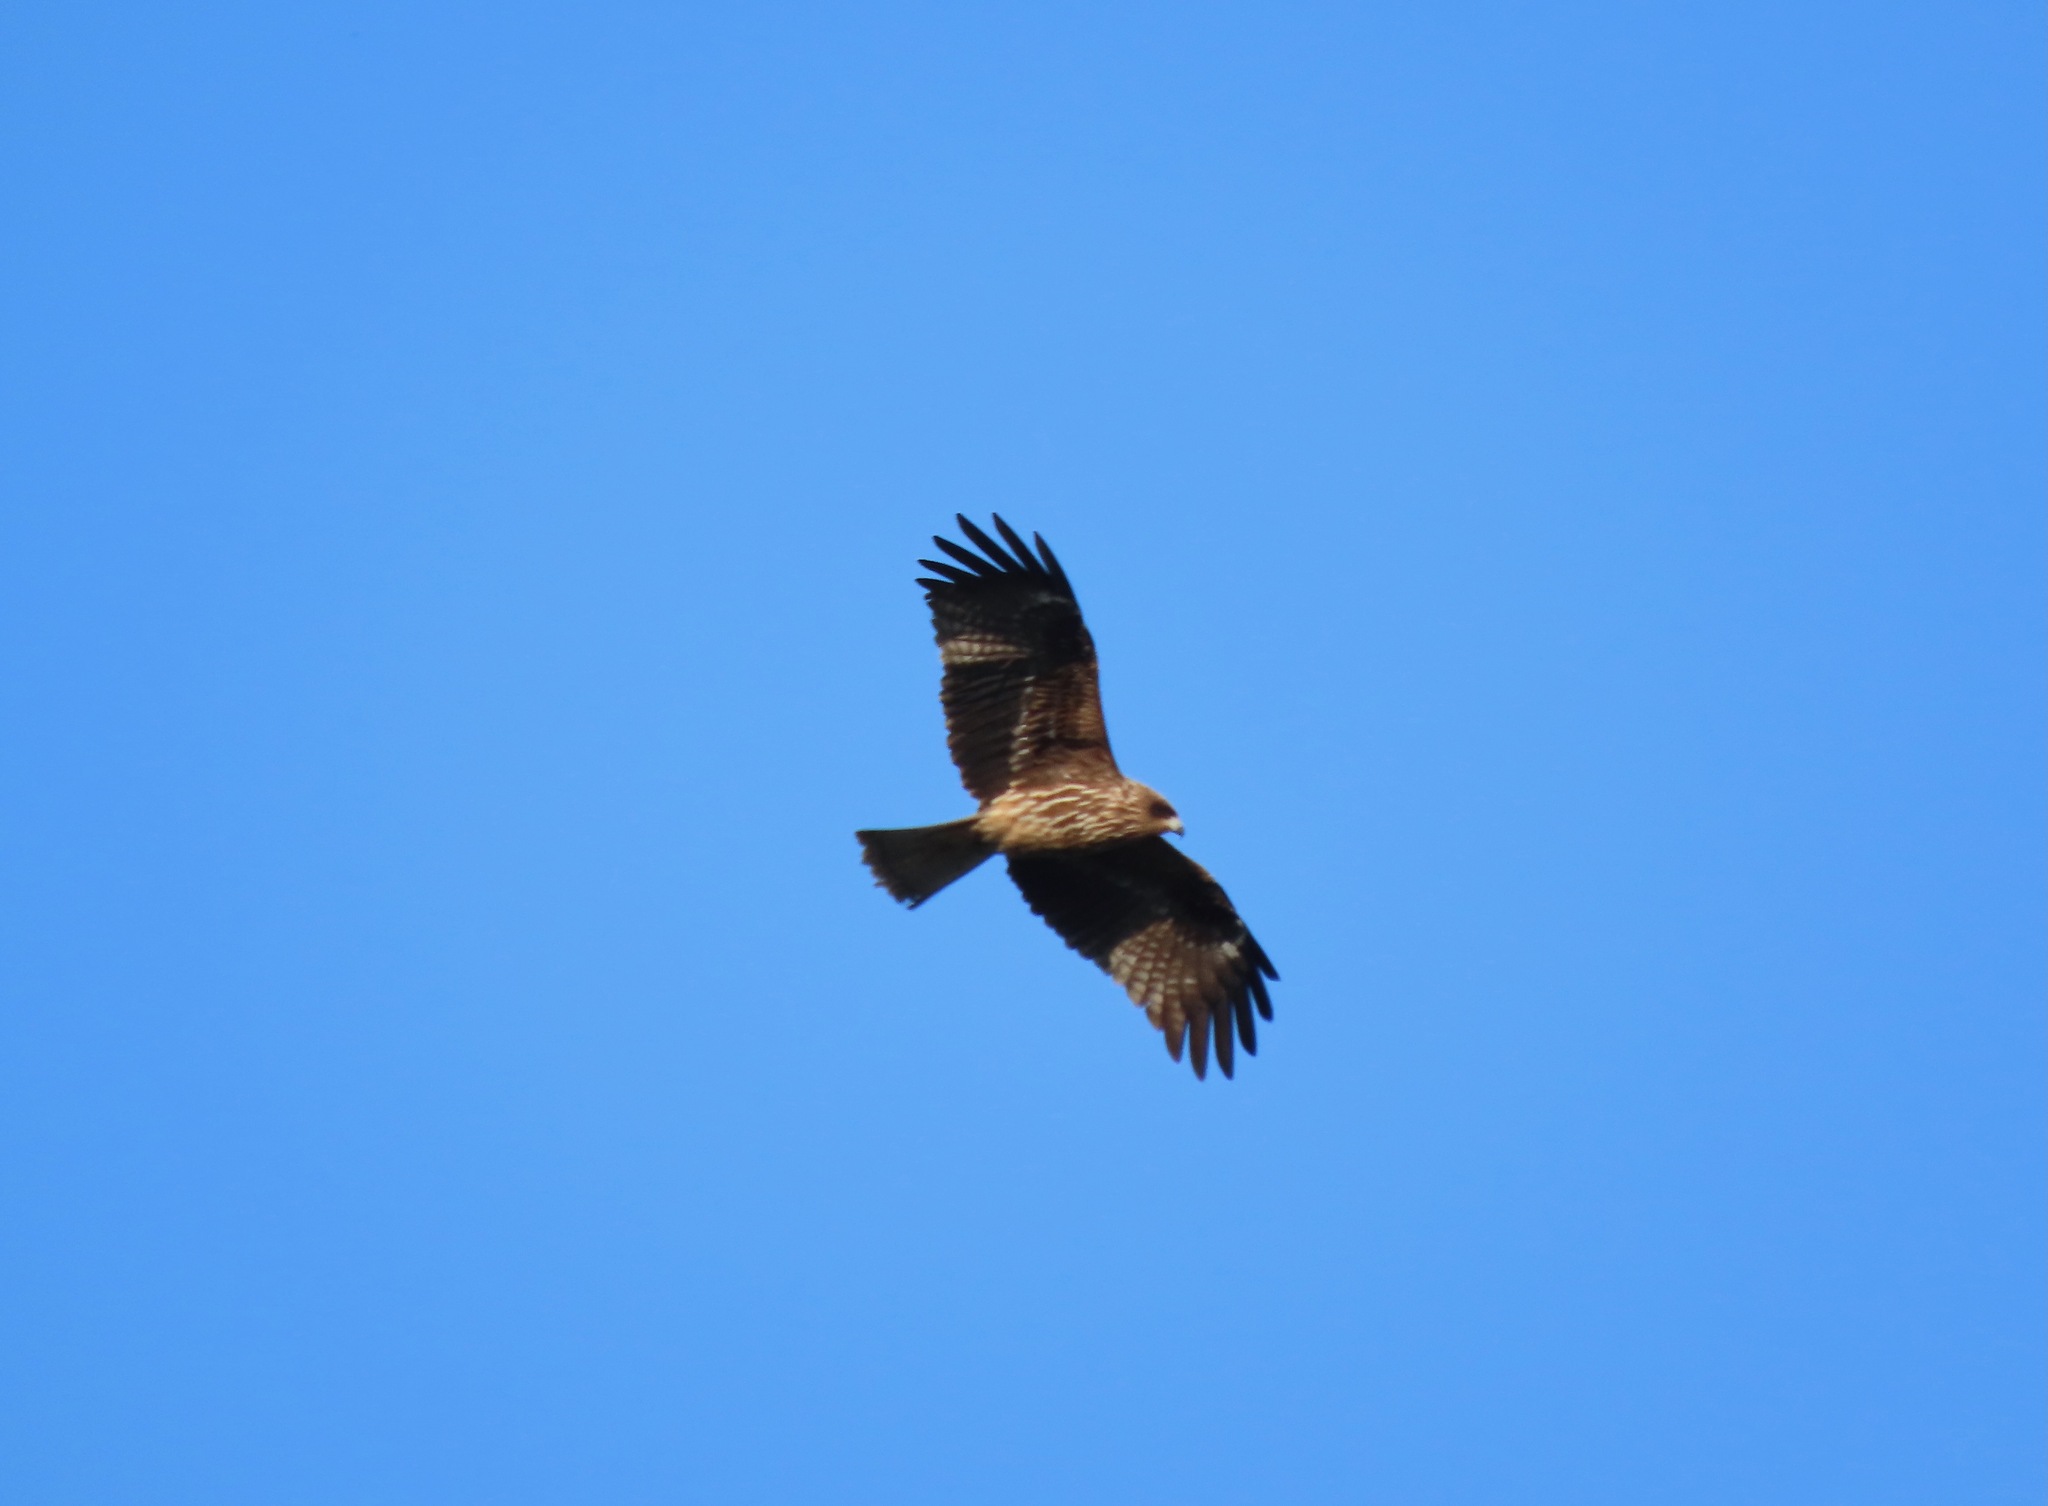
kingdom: Animalia
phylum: Chordata
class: Aves
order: Accipitriformes
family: Accipitridae
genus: Milvus
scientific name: Milvus migrans
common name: Black kite
